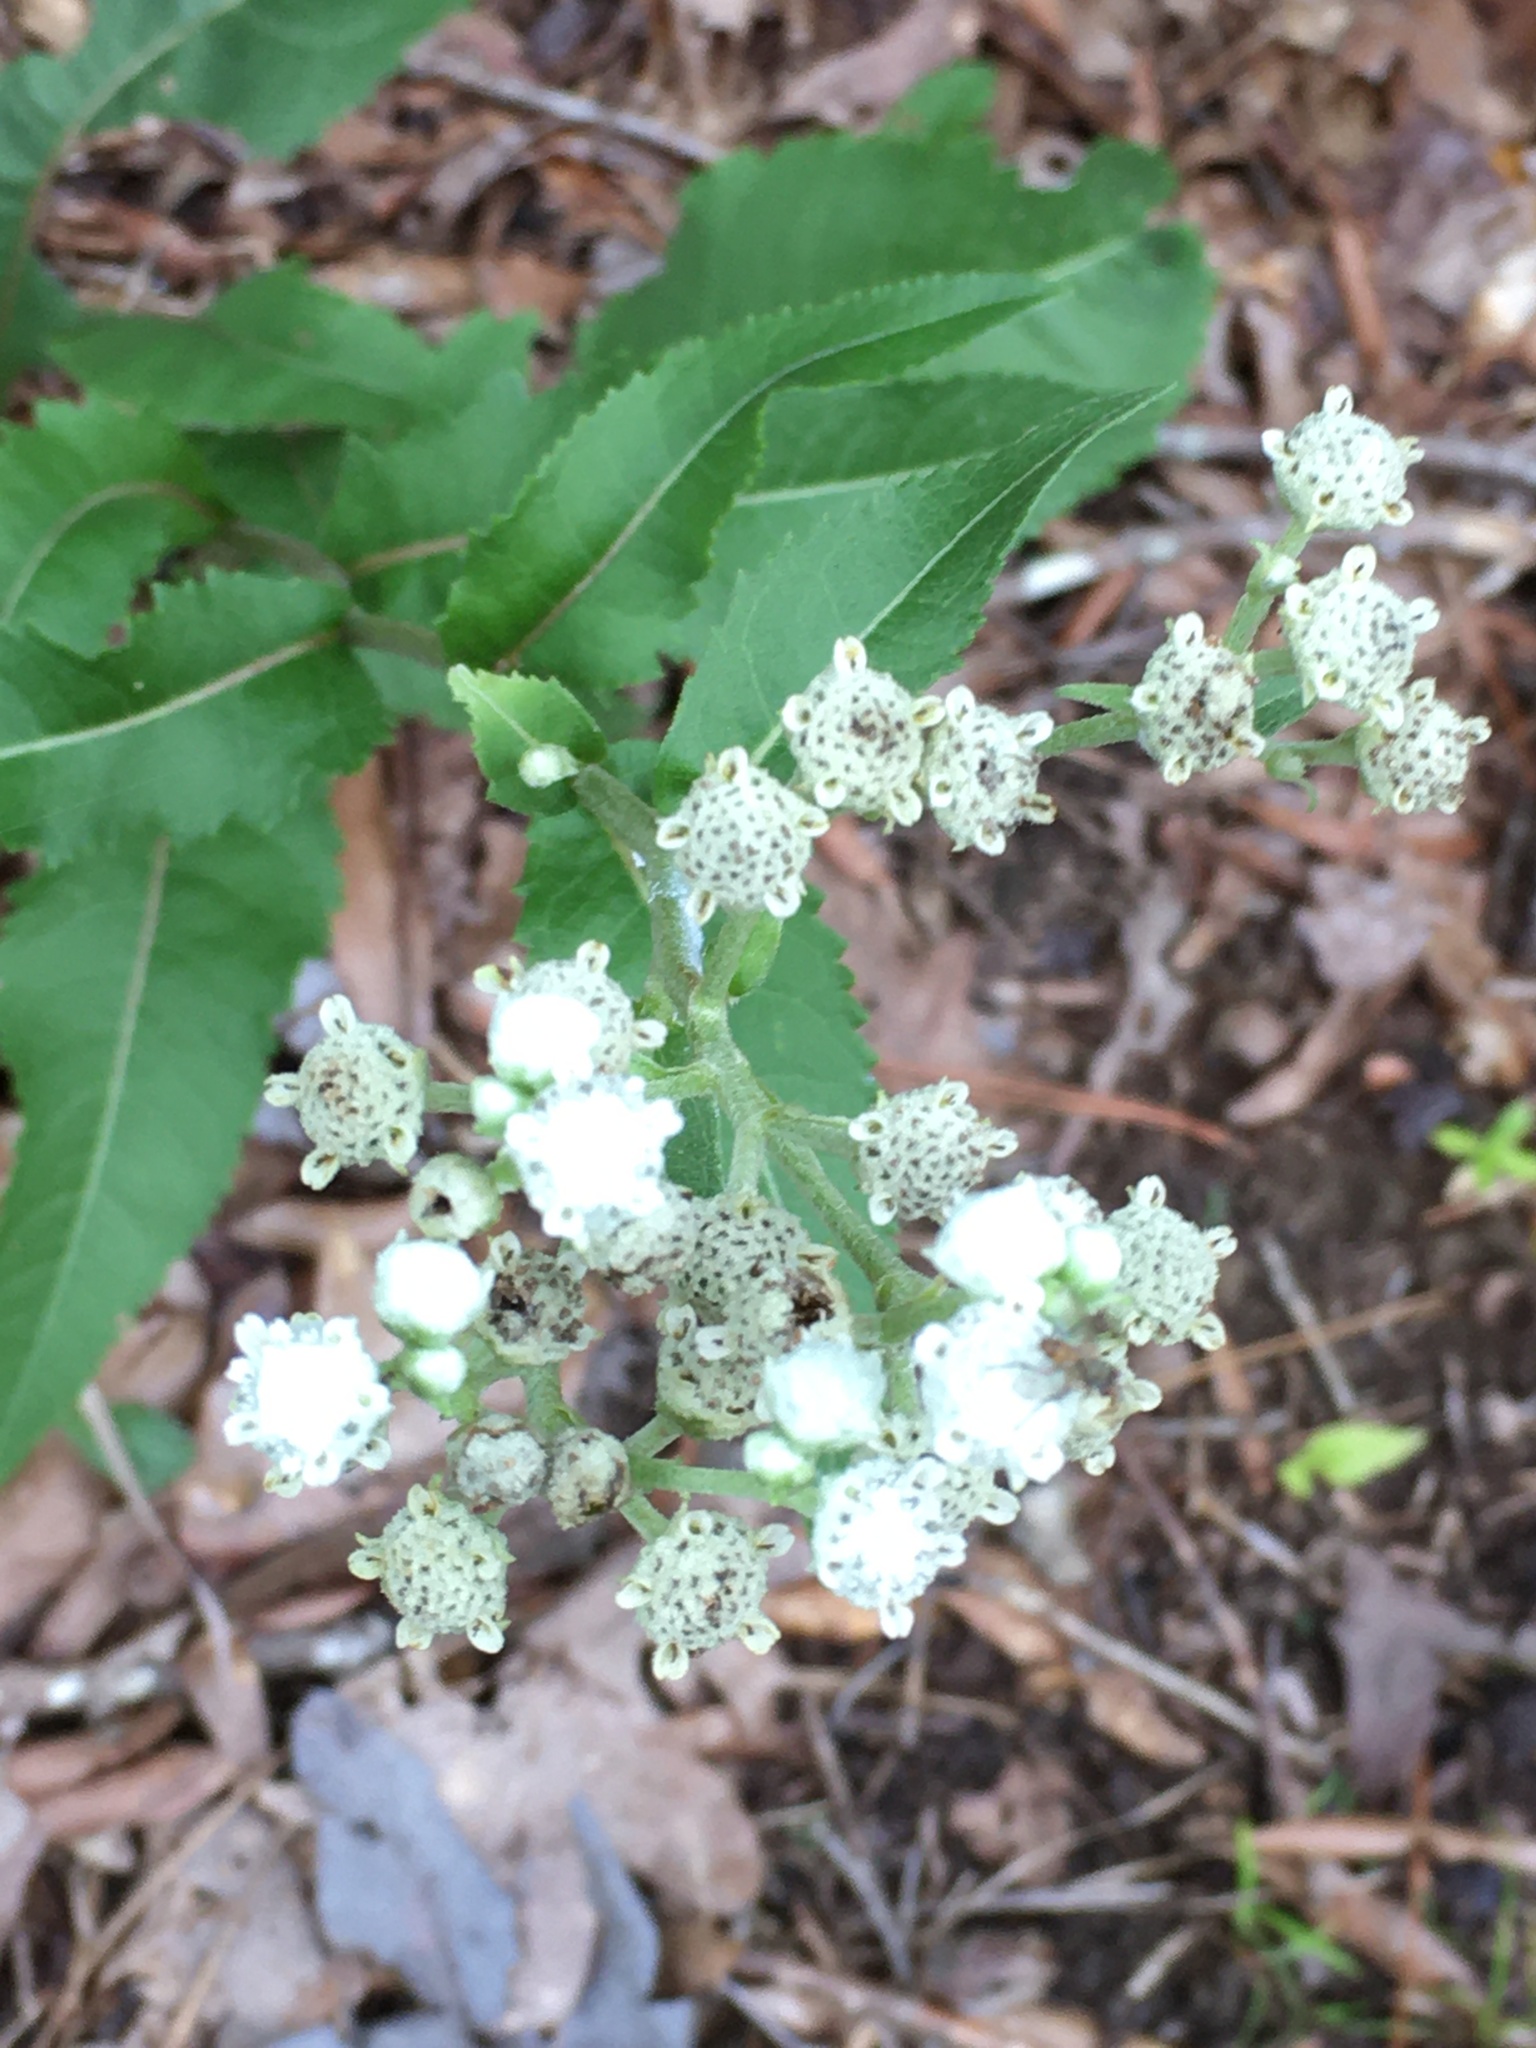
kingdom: Plantae
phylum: Tracheophyta
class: Magnoliopsida
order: Asterales
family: Asteraceae
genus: Parthenium
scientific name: Parthenium integrifolium
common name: American feverfew
